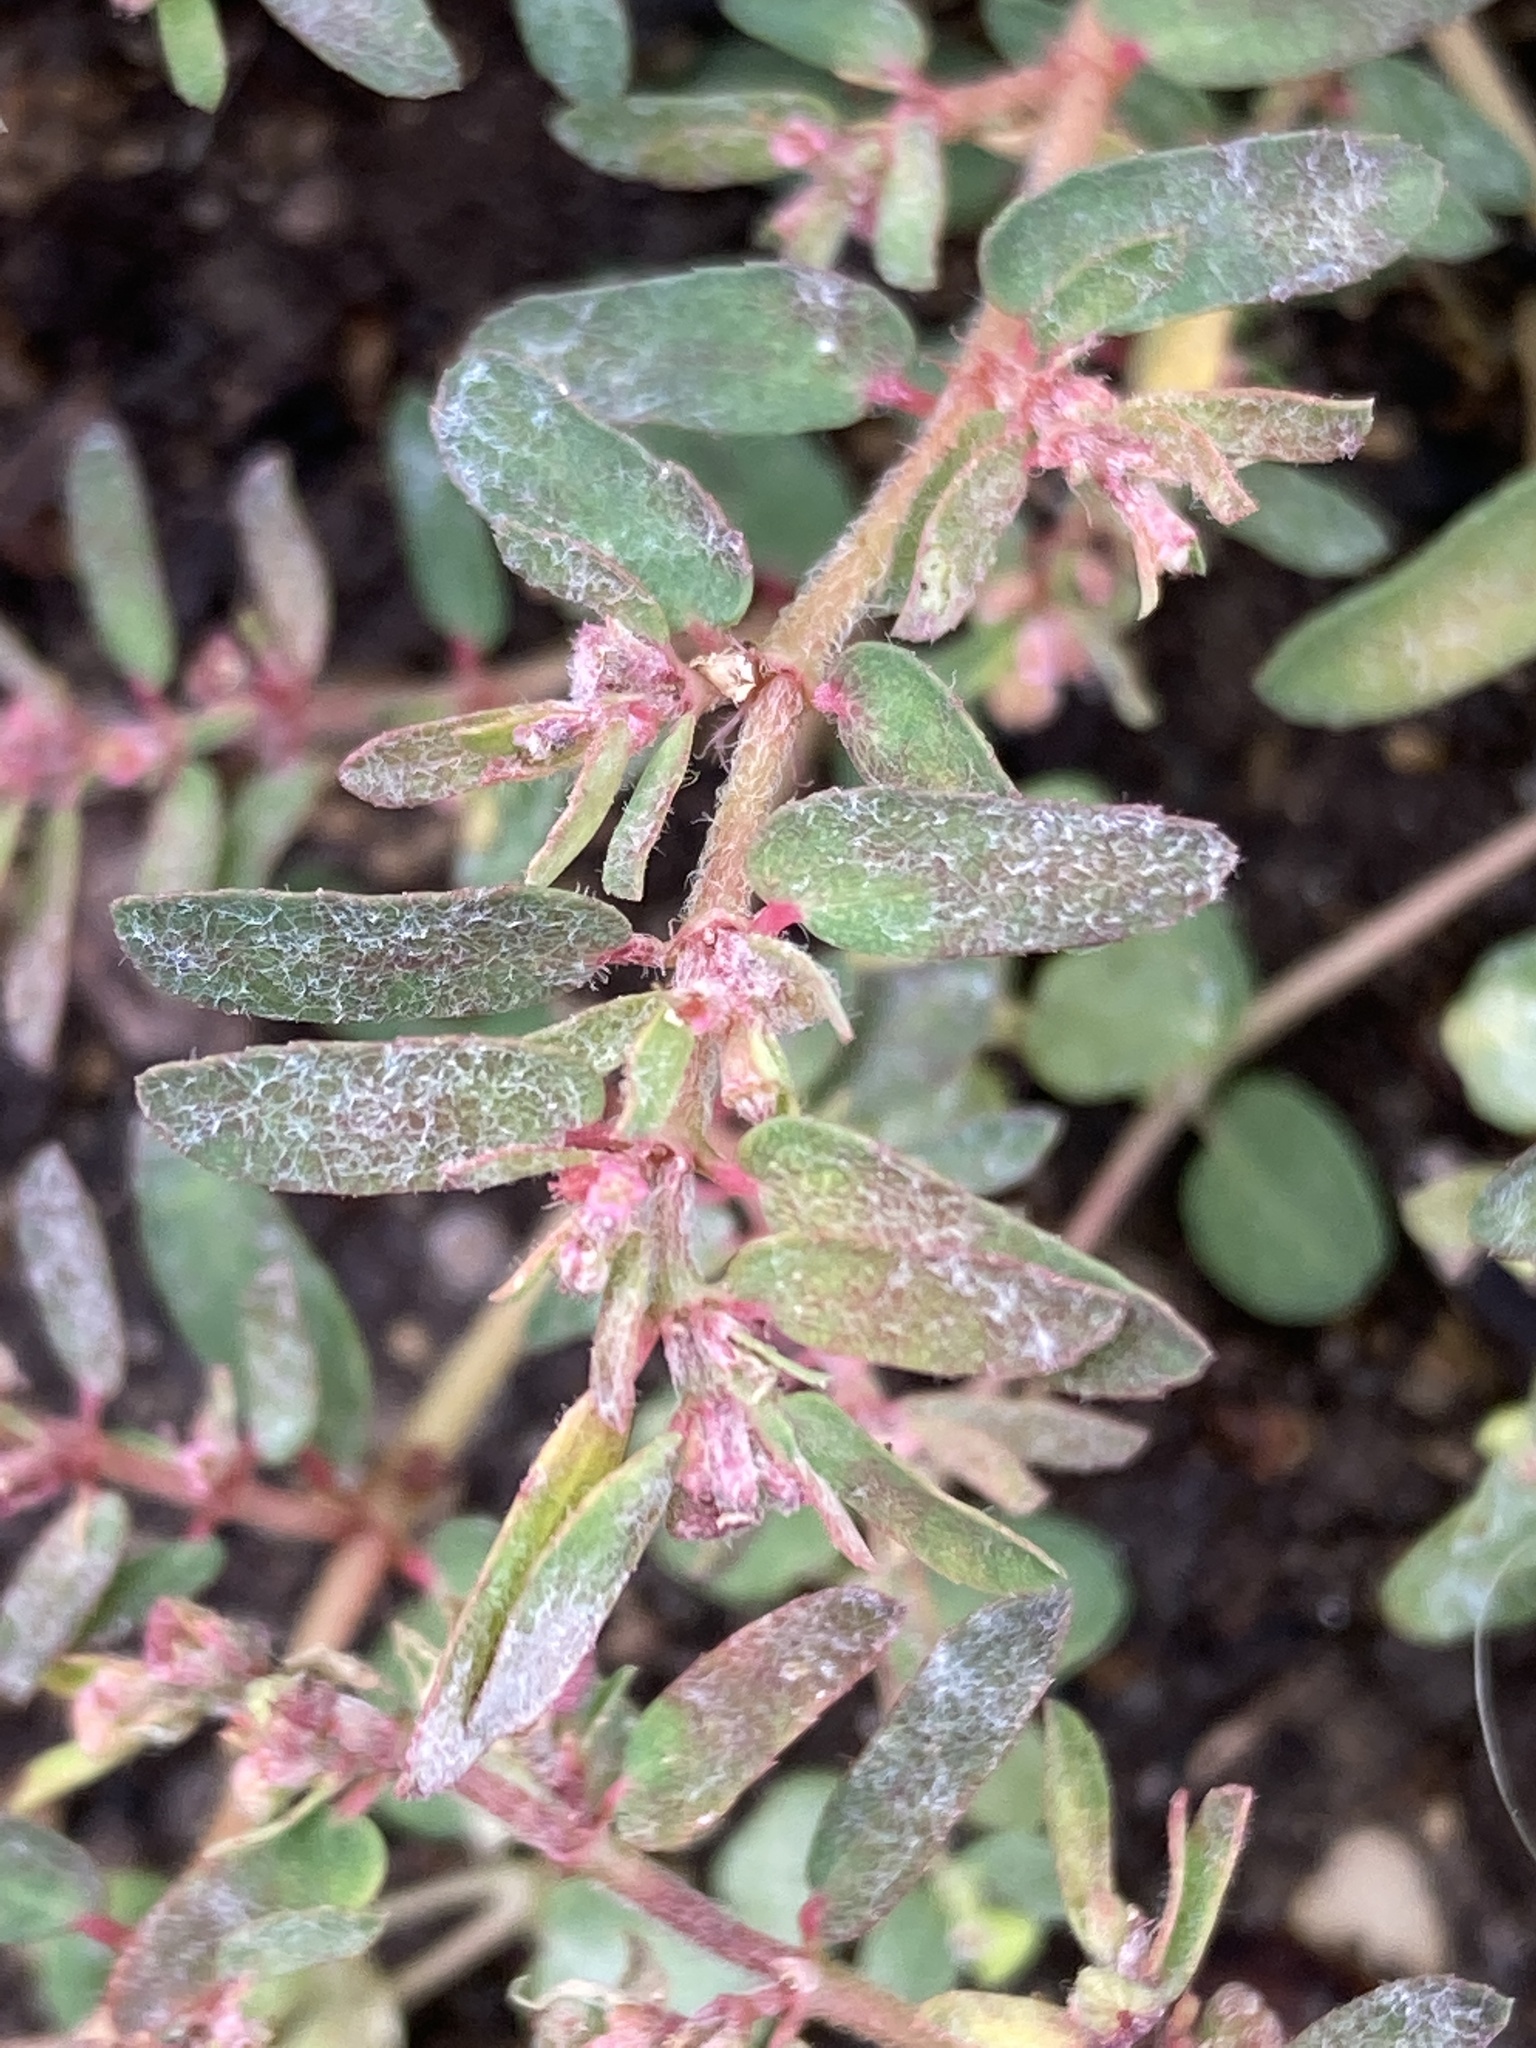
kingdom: Plantae
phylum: Tracheophyta
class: Magnoliopsida
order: Malpighiales
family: Euphorbiaceae
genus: Euphorbia
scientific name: Euphorbia maculata
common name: Spotted spurge
